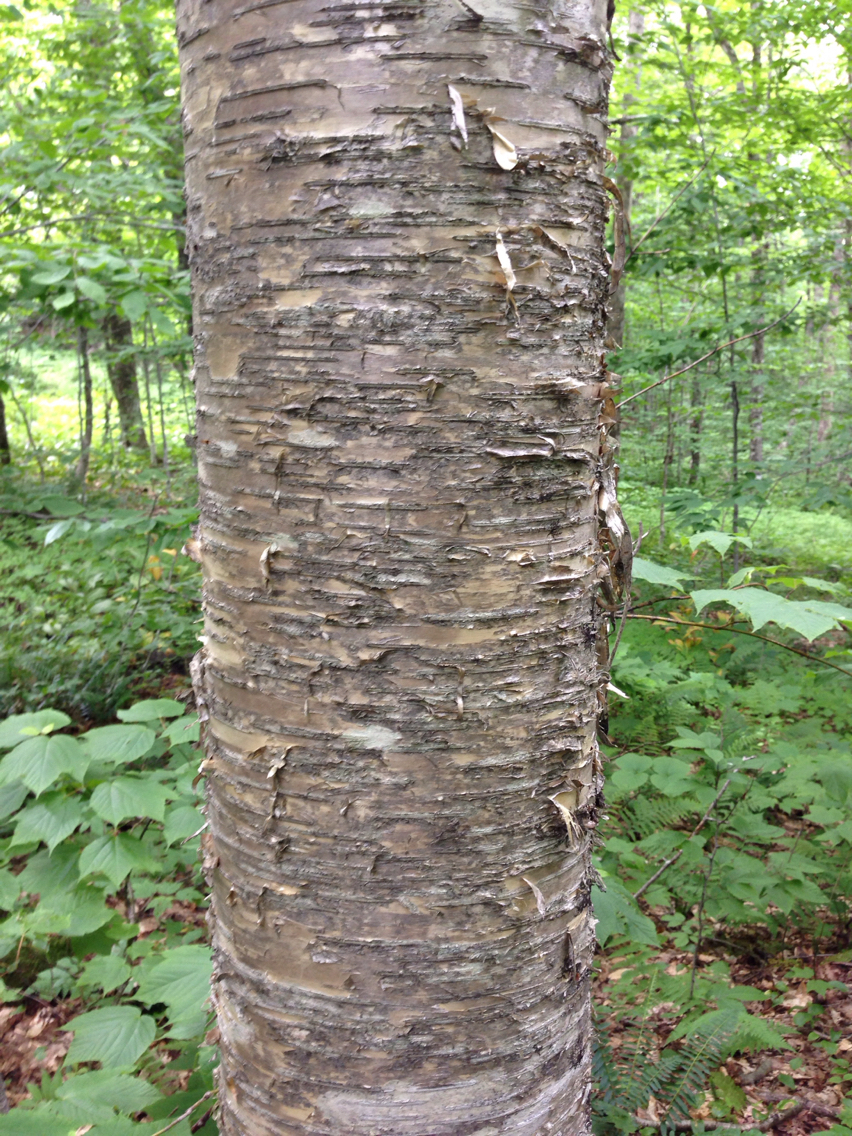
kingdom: Plantae
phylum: Tracheophyta
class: Magnoliopsida
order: Fagales
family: Betulaceae
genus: Betula
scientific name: Betula alleghaniensis
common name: Yellow birch
